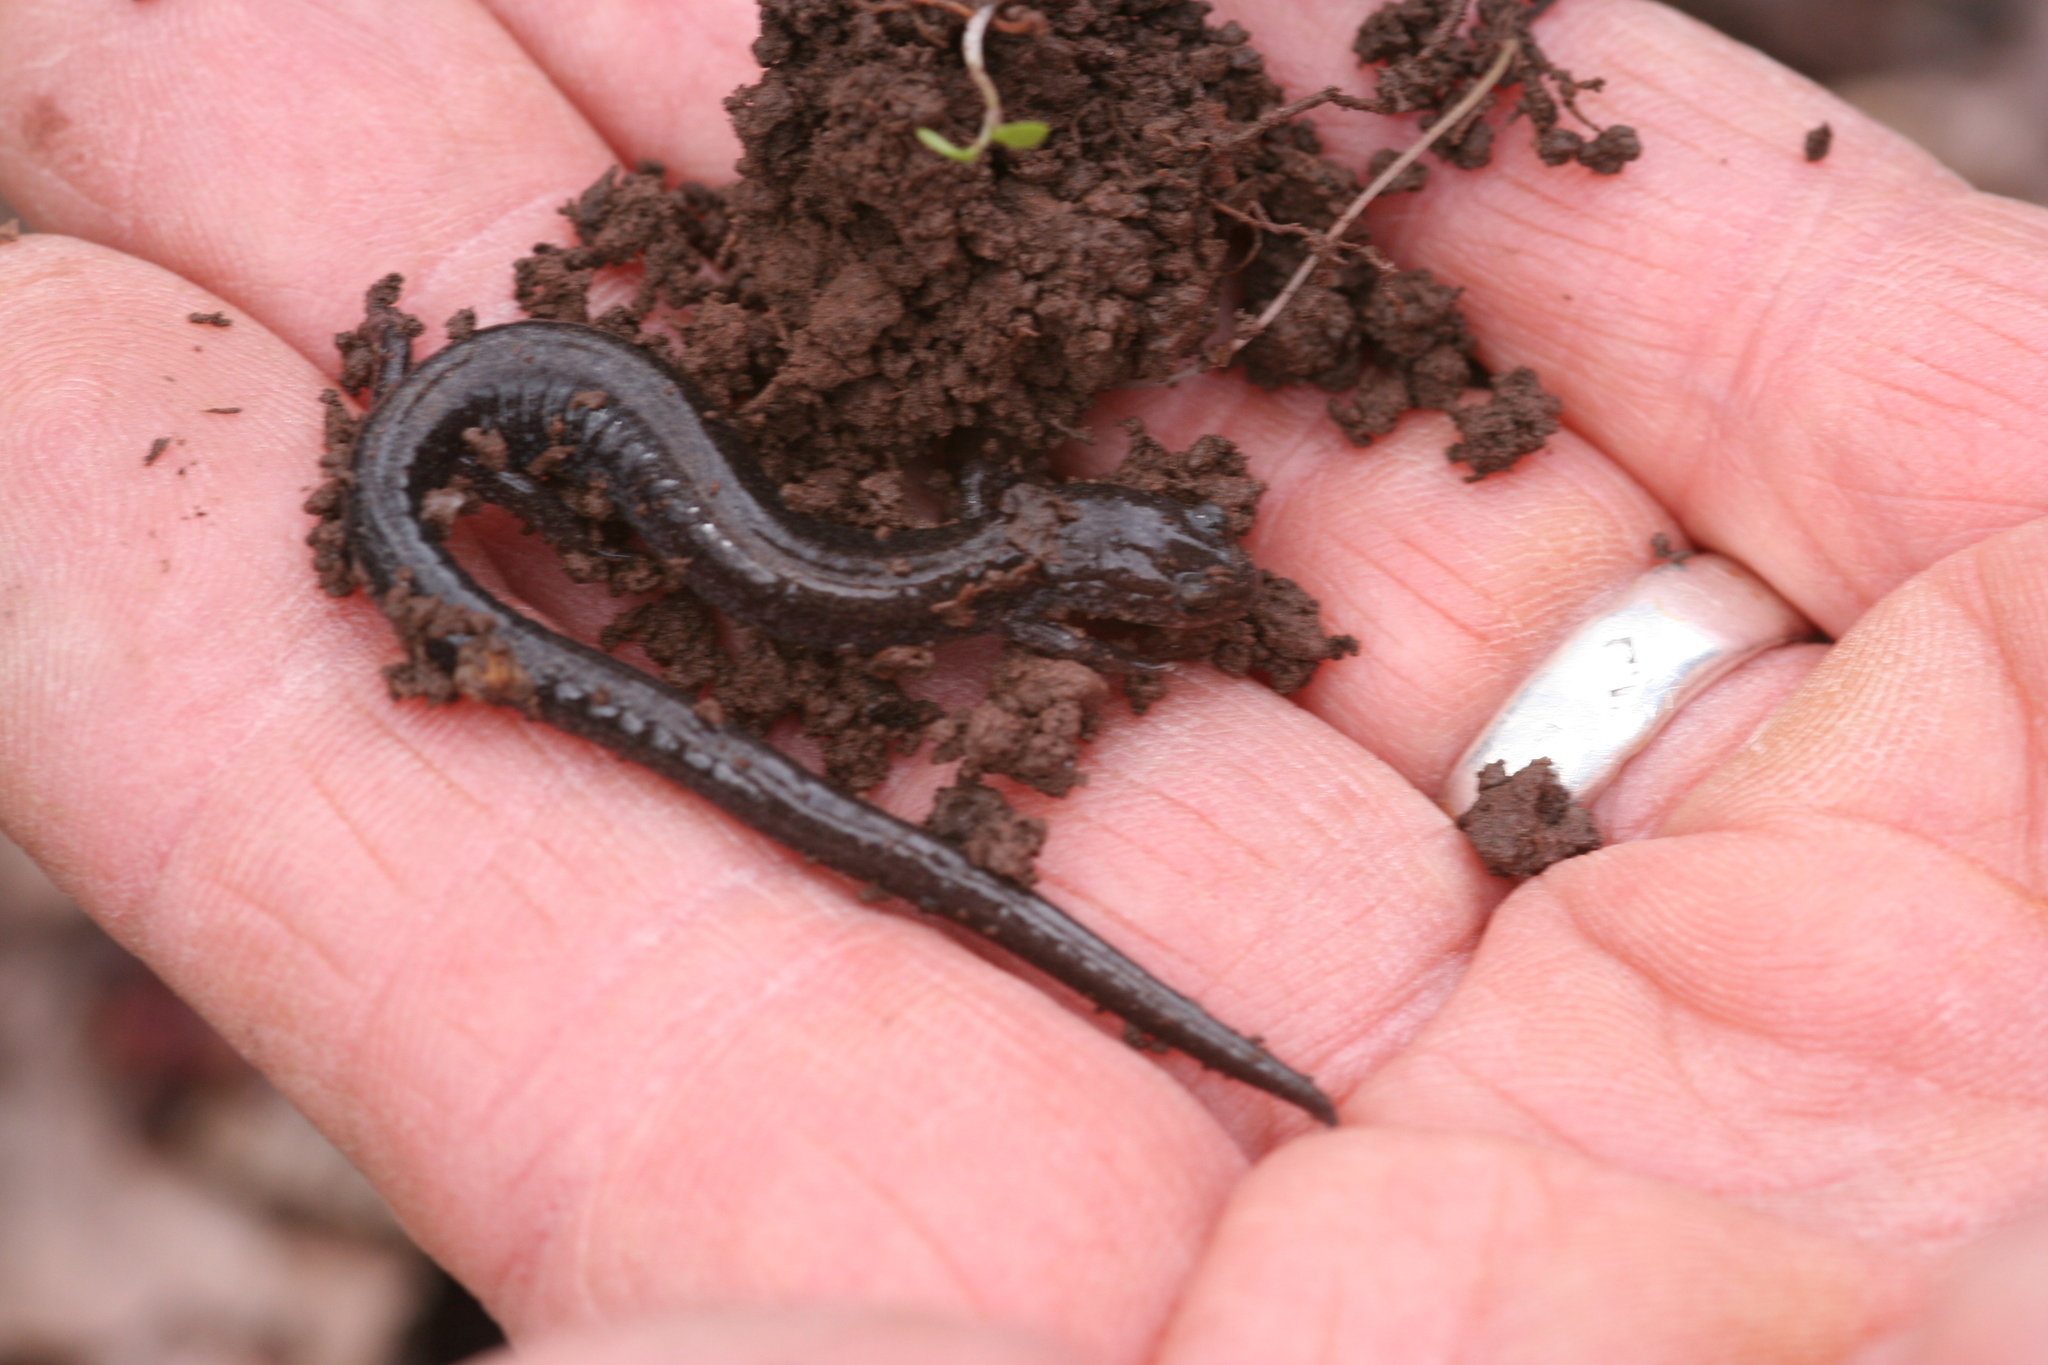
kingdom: Animalia
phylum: Chordata
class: Amphibia
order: Caudata
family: Plethodontidae
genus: Plethodon
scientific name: Plethodon hoffmani
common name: Valley and ridge salamander
